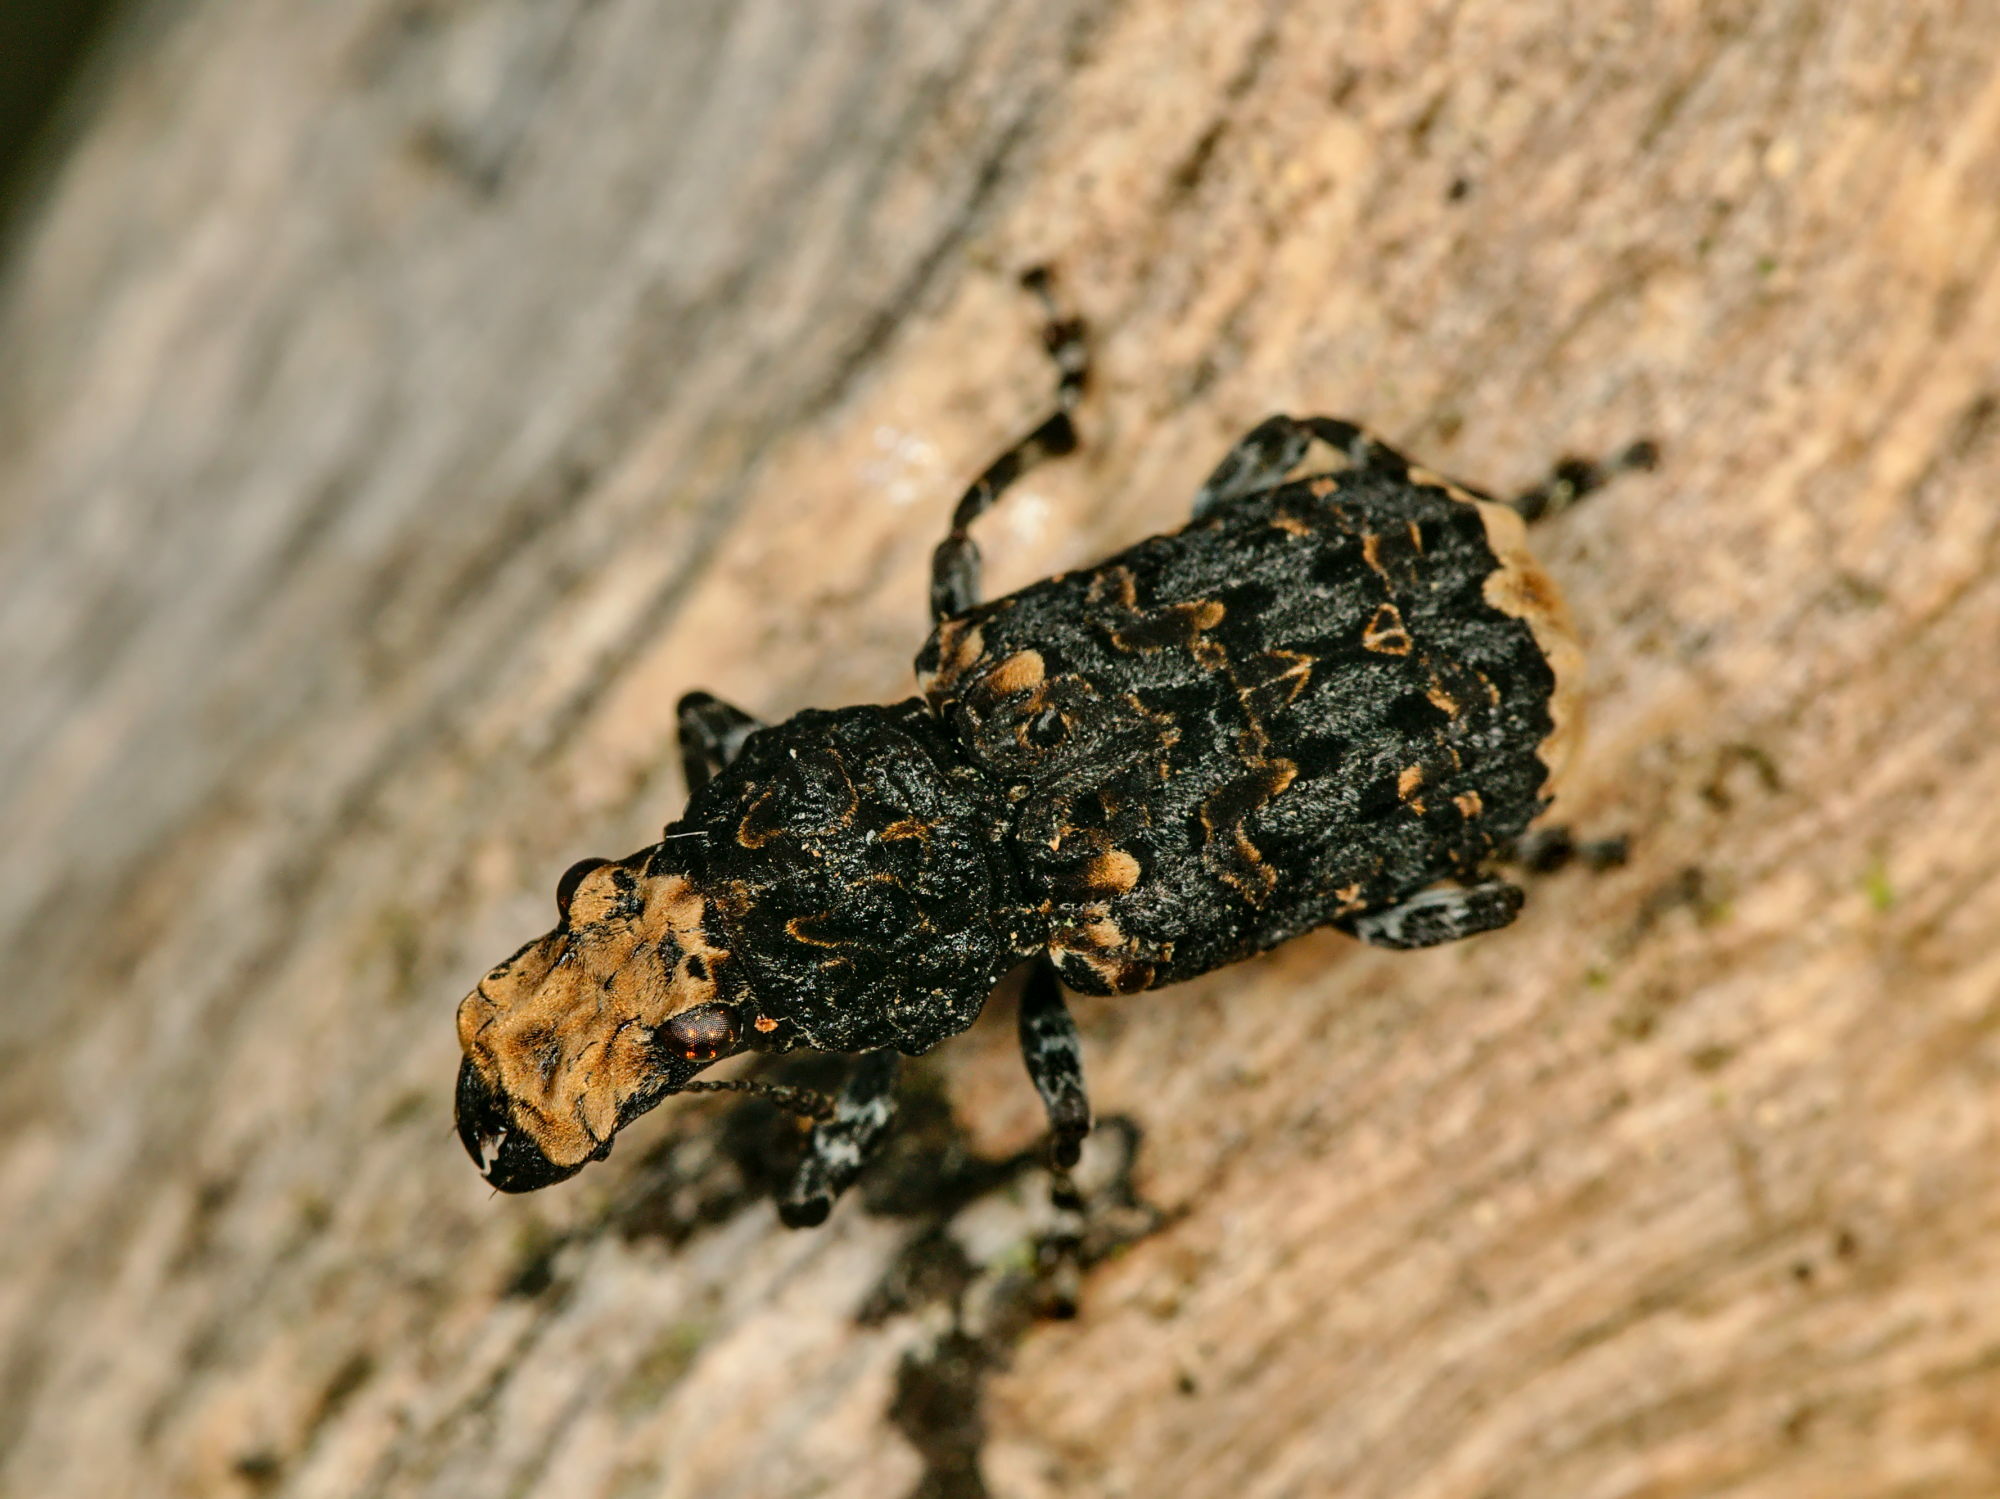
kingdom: Animalia
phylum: Arthropoda
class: Insecta
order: Coleoptera
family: Anthribidae
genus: Platyrhinus
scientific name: Platyrhinus resinosus
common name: Cramp-ball fungus weevil
